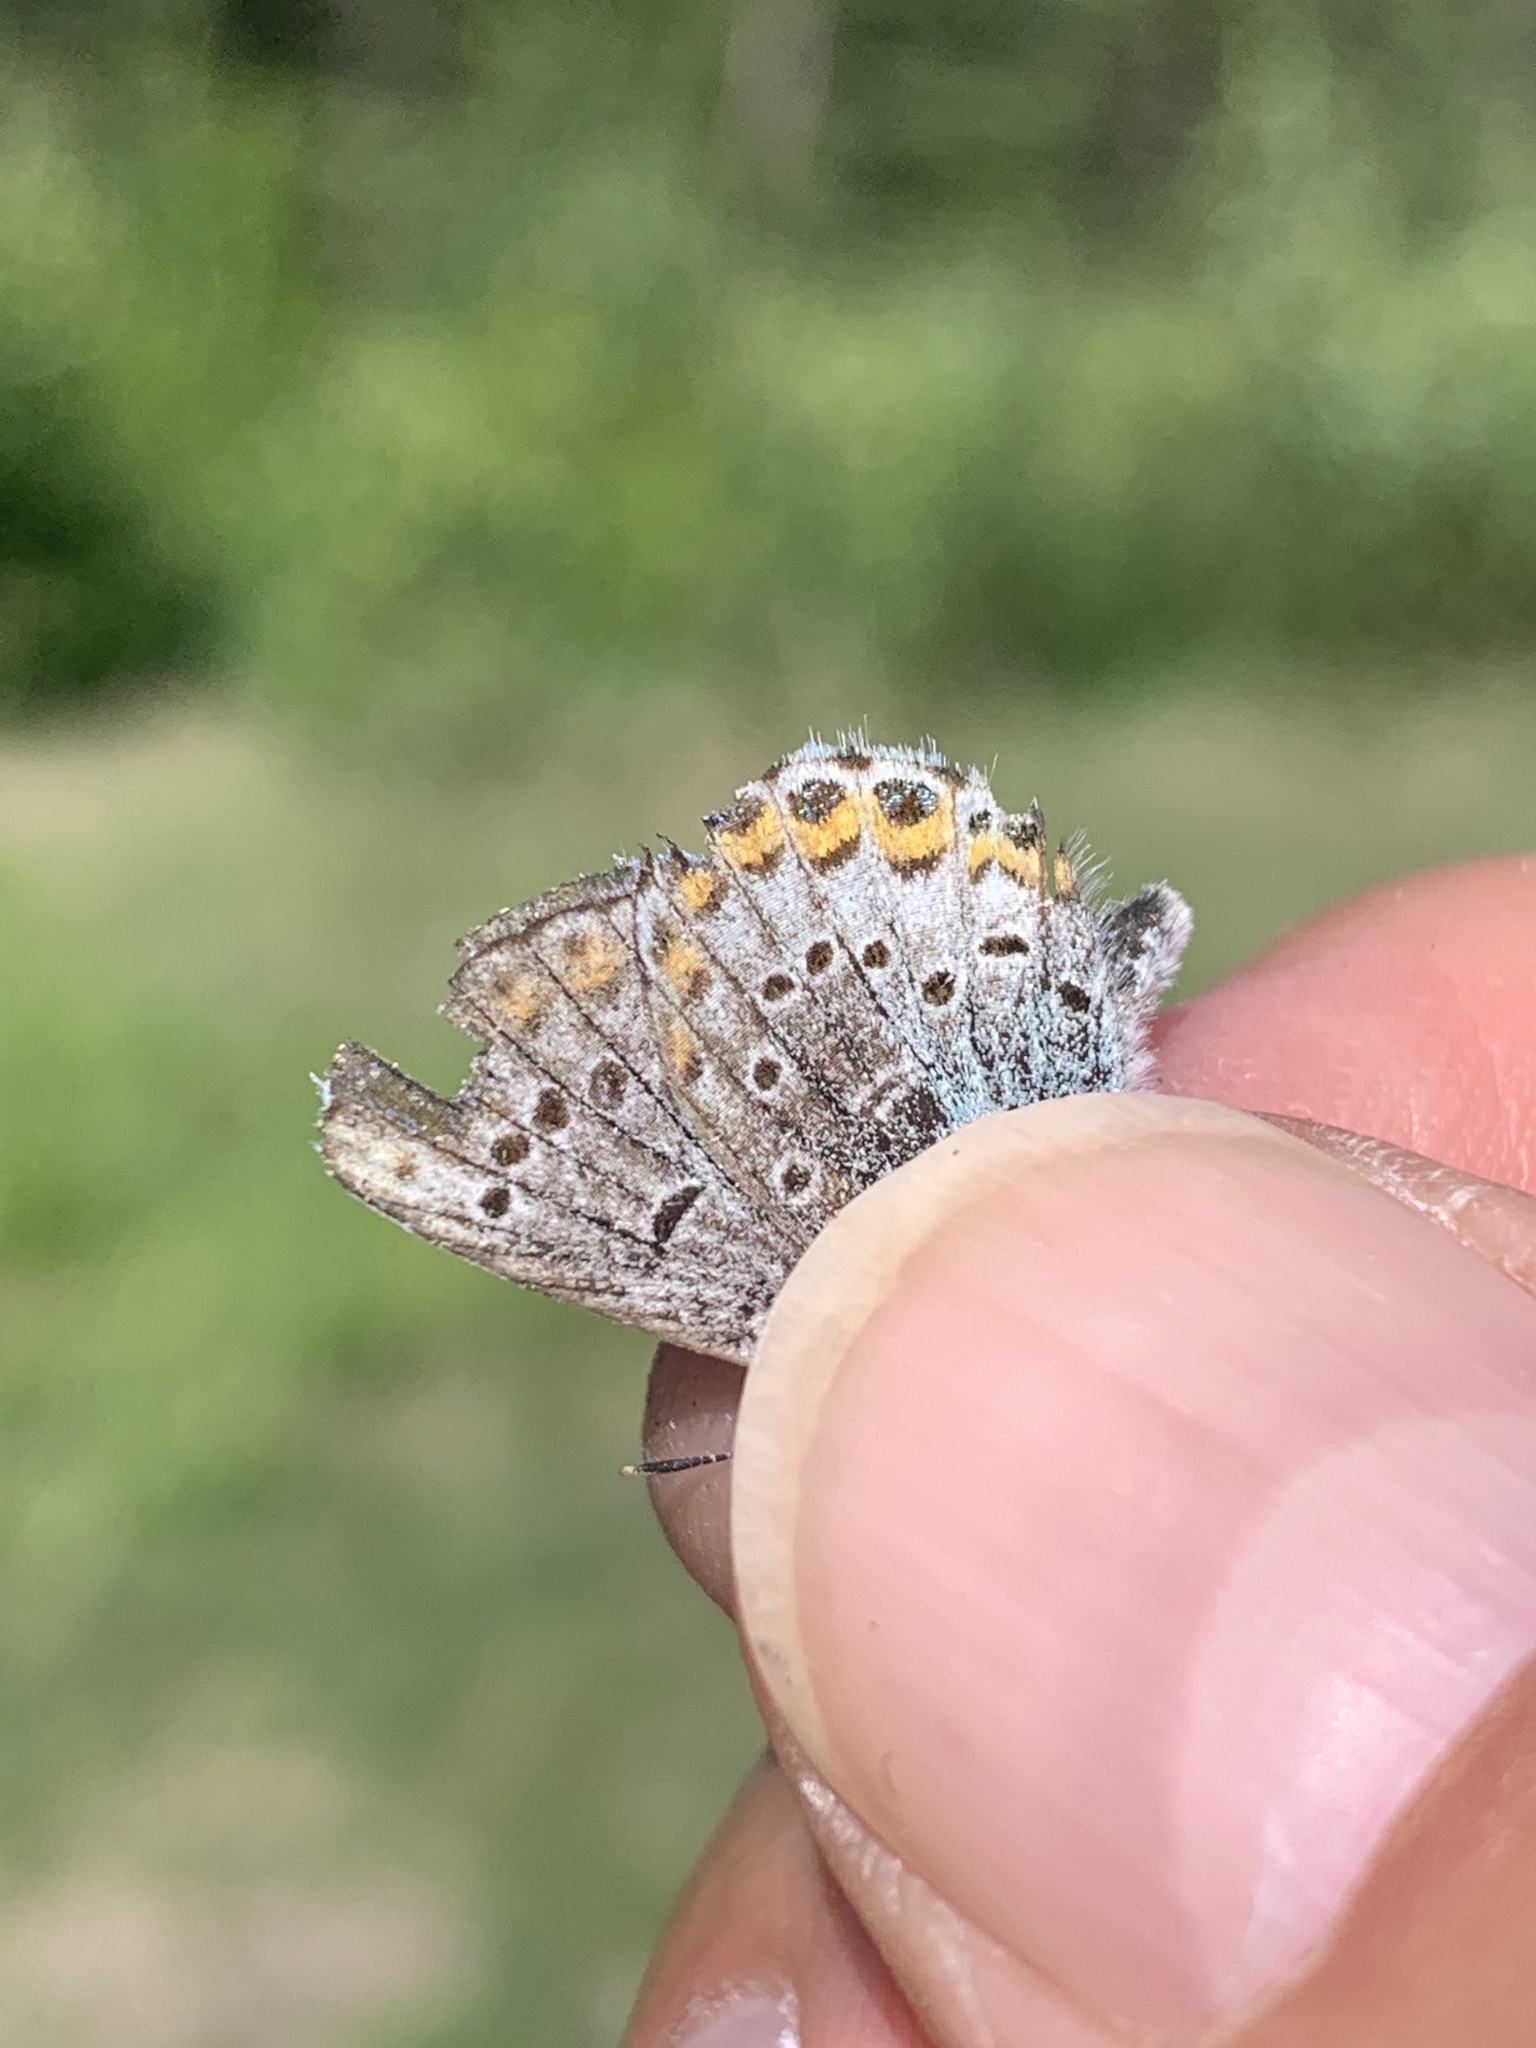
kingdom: Animalia
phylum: Arthropoda
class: Insecta
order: Lepidoptera
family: Lycaenidae
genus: Lycaeides
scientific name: Lycaeides idas
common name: Northern blue
